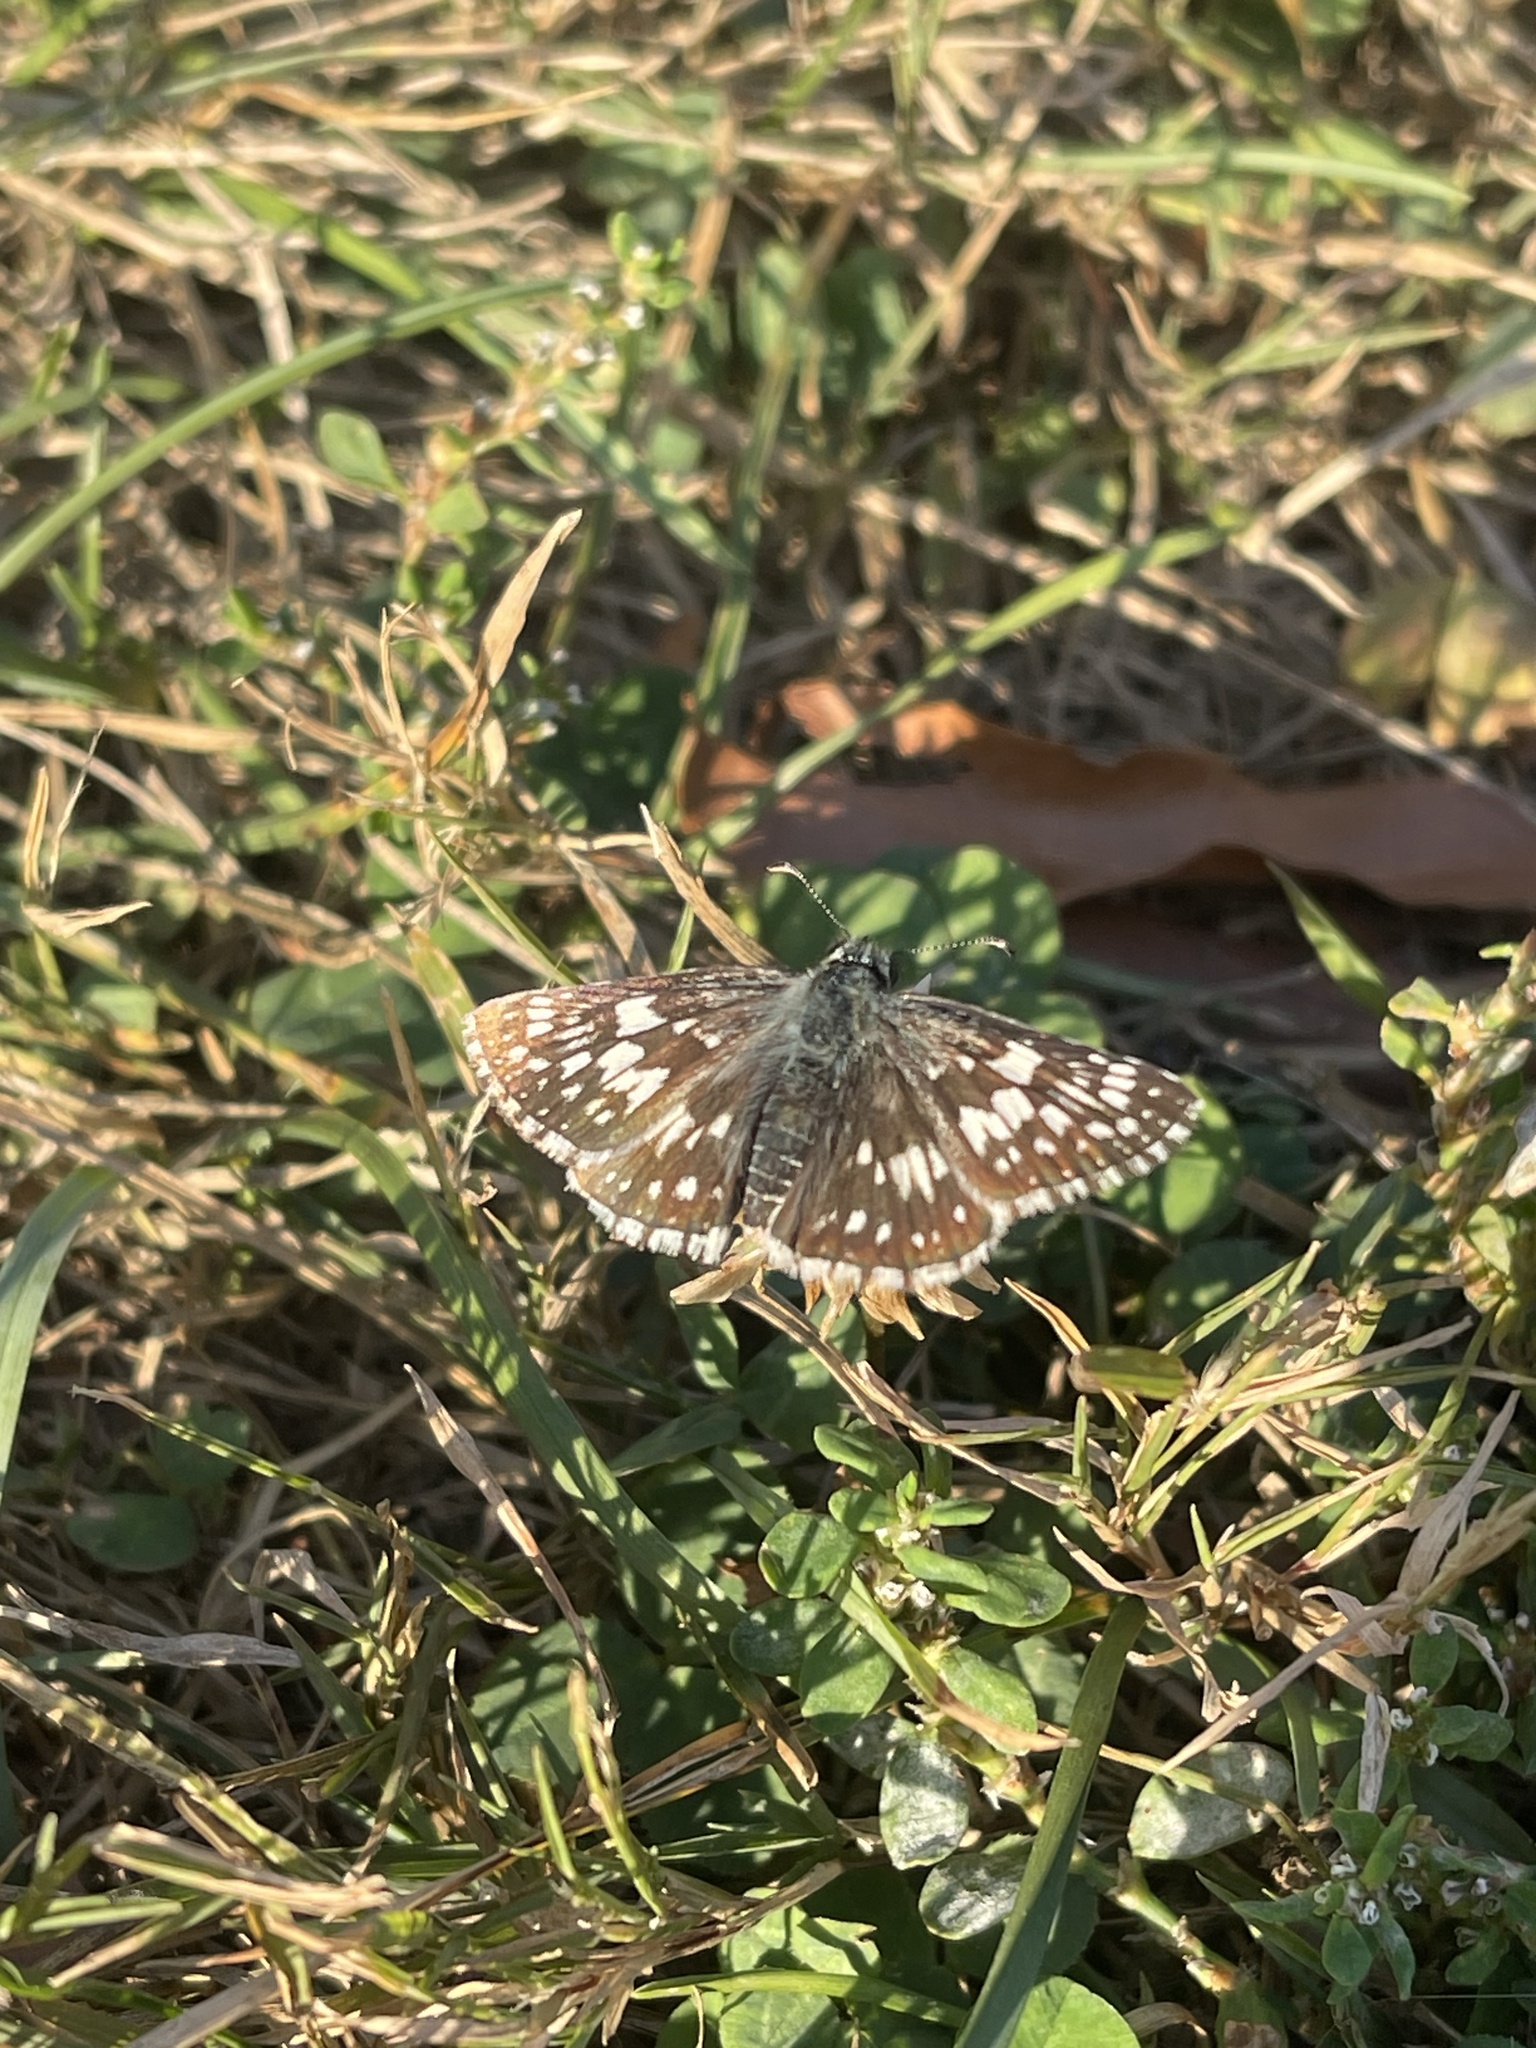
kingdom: Animalia
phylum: Arthropoda
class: Insecta
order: Lepidoptera
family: Hesperiidae
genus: Burnsius
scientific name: Burnsius communis
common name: Common checkered-skipper
